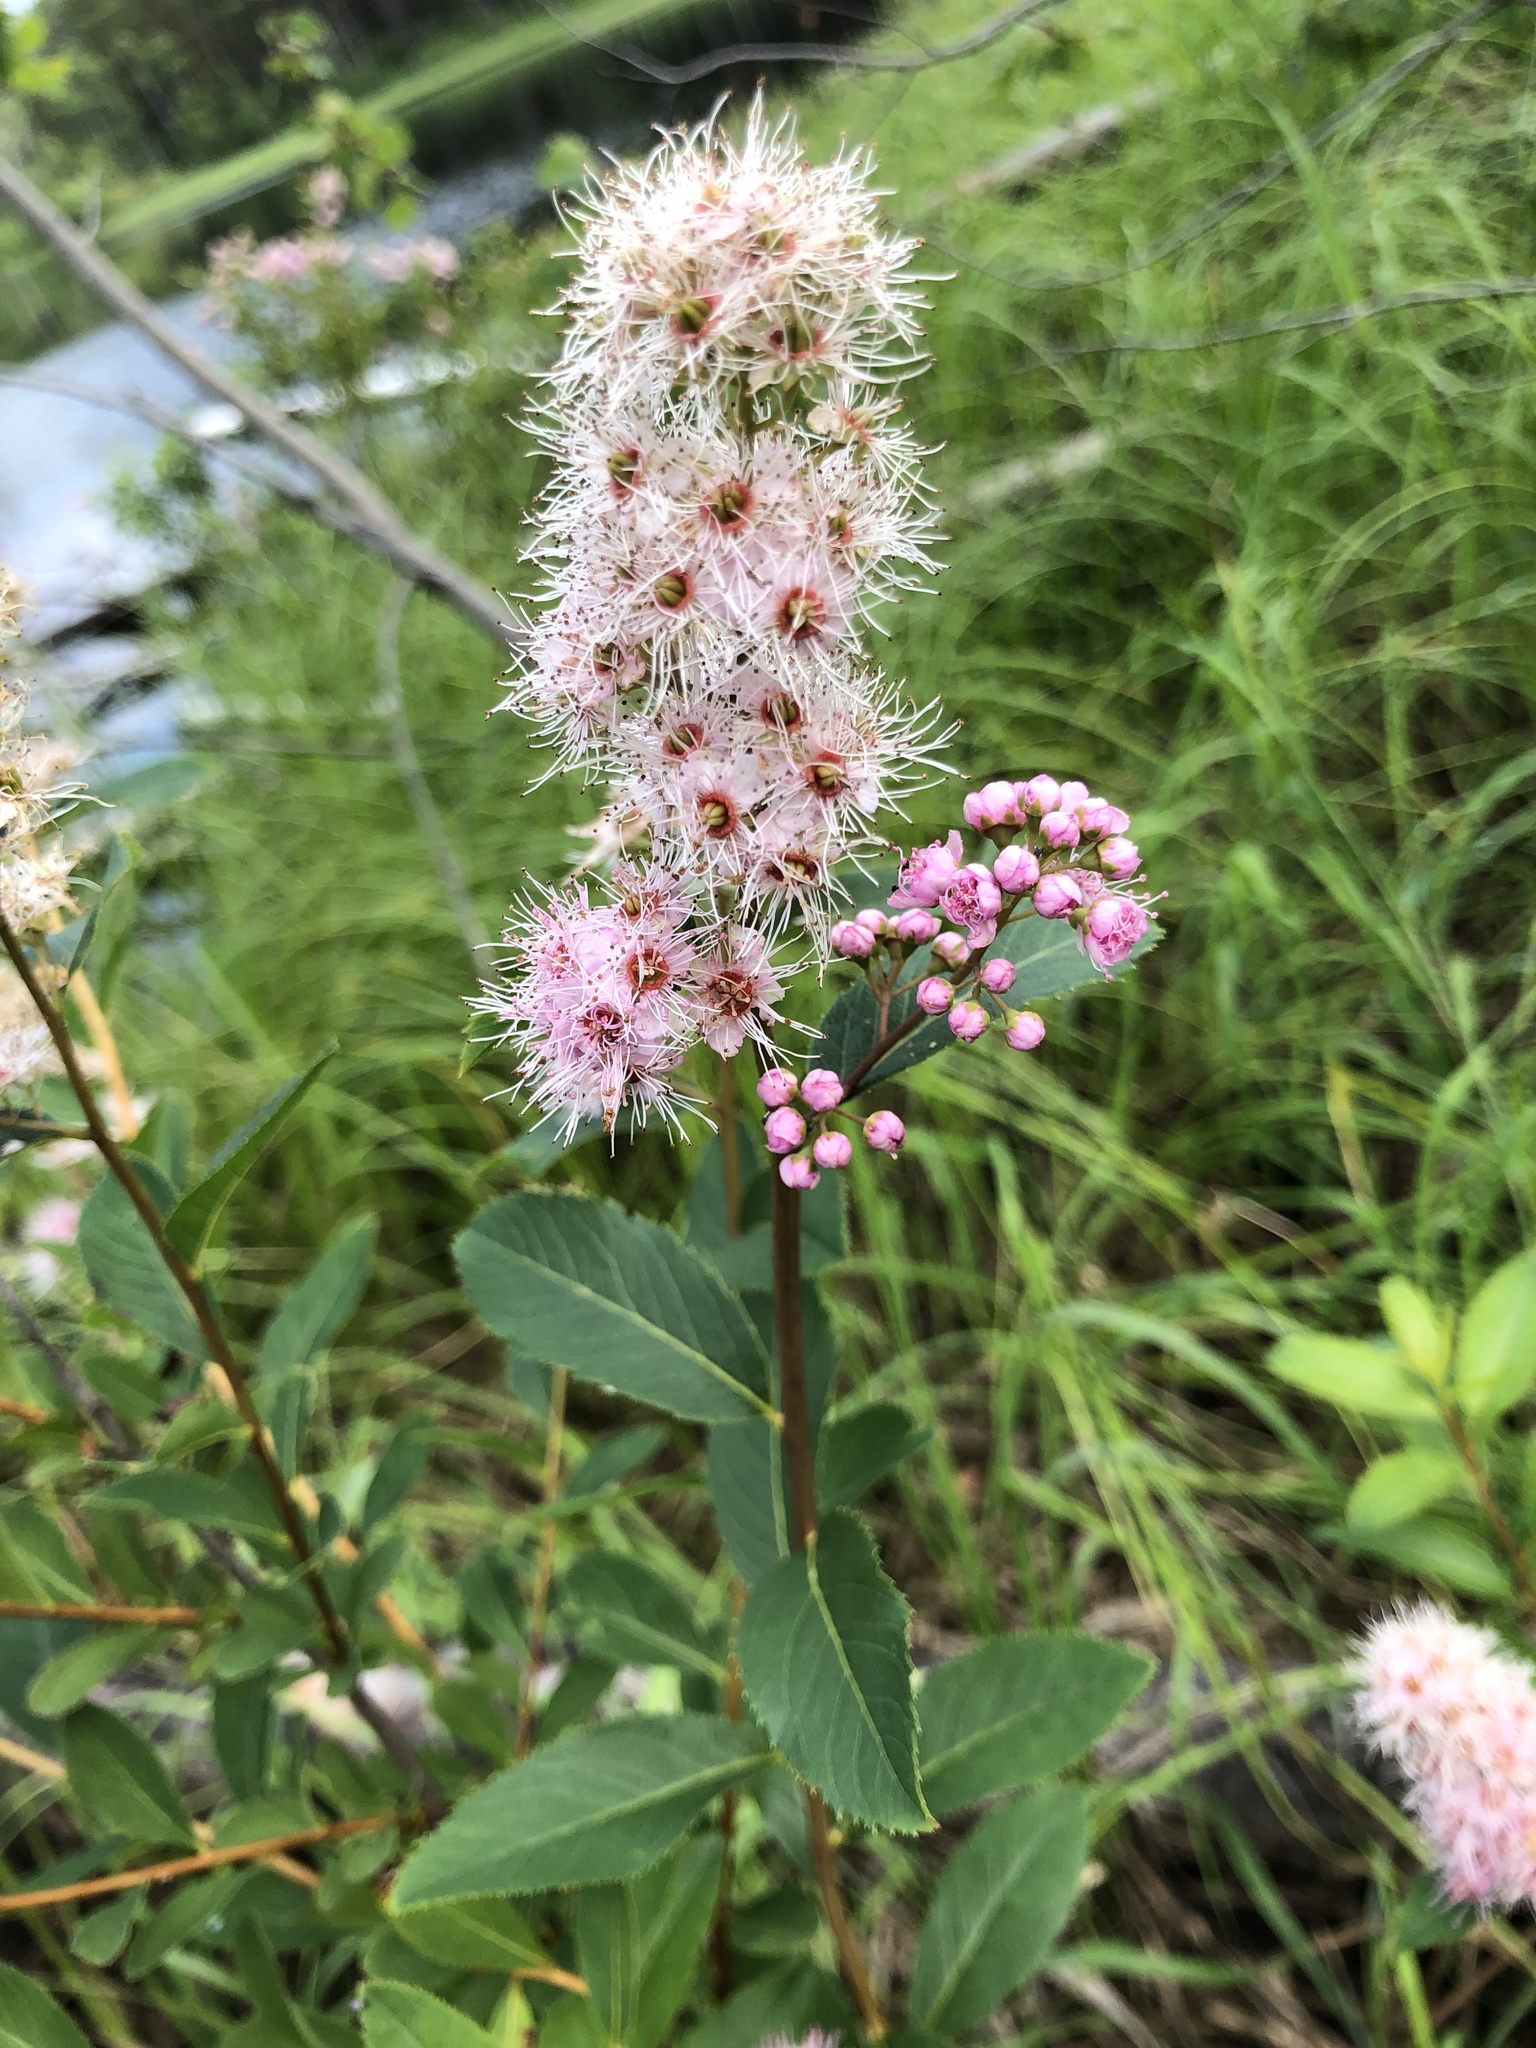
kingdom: Plantae
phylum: Tracheophyta
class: Magnoliopsida
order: Rosales
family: Rosaceae
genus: Spiraea
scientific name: Spiraea salicifolia
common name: Bridewort
